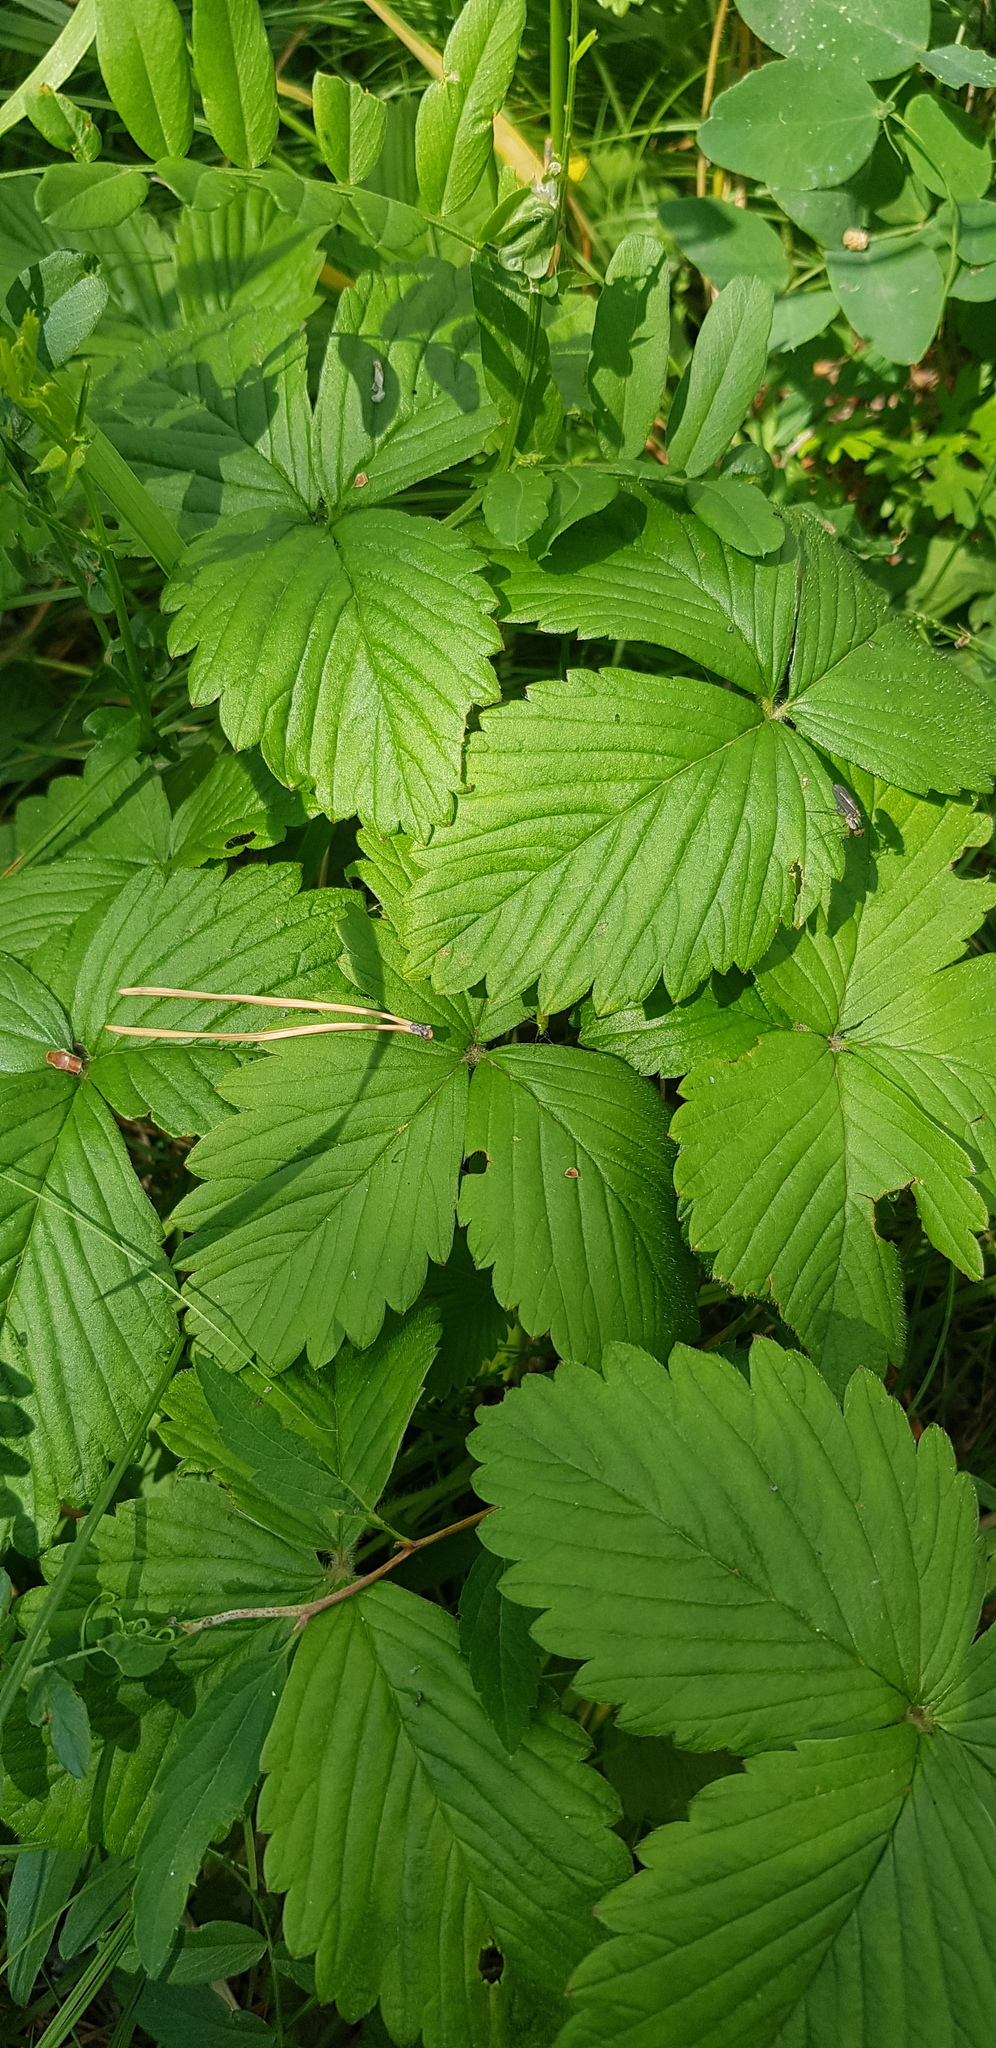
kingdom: Plantae
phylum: Tracheophyta
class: Magnoliopsida
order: Rosales
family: Rosaceae
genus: Fragaria
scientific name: Fragaria orientalis
